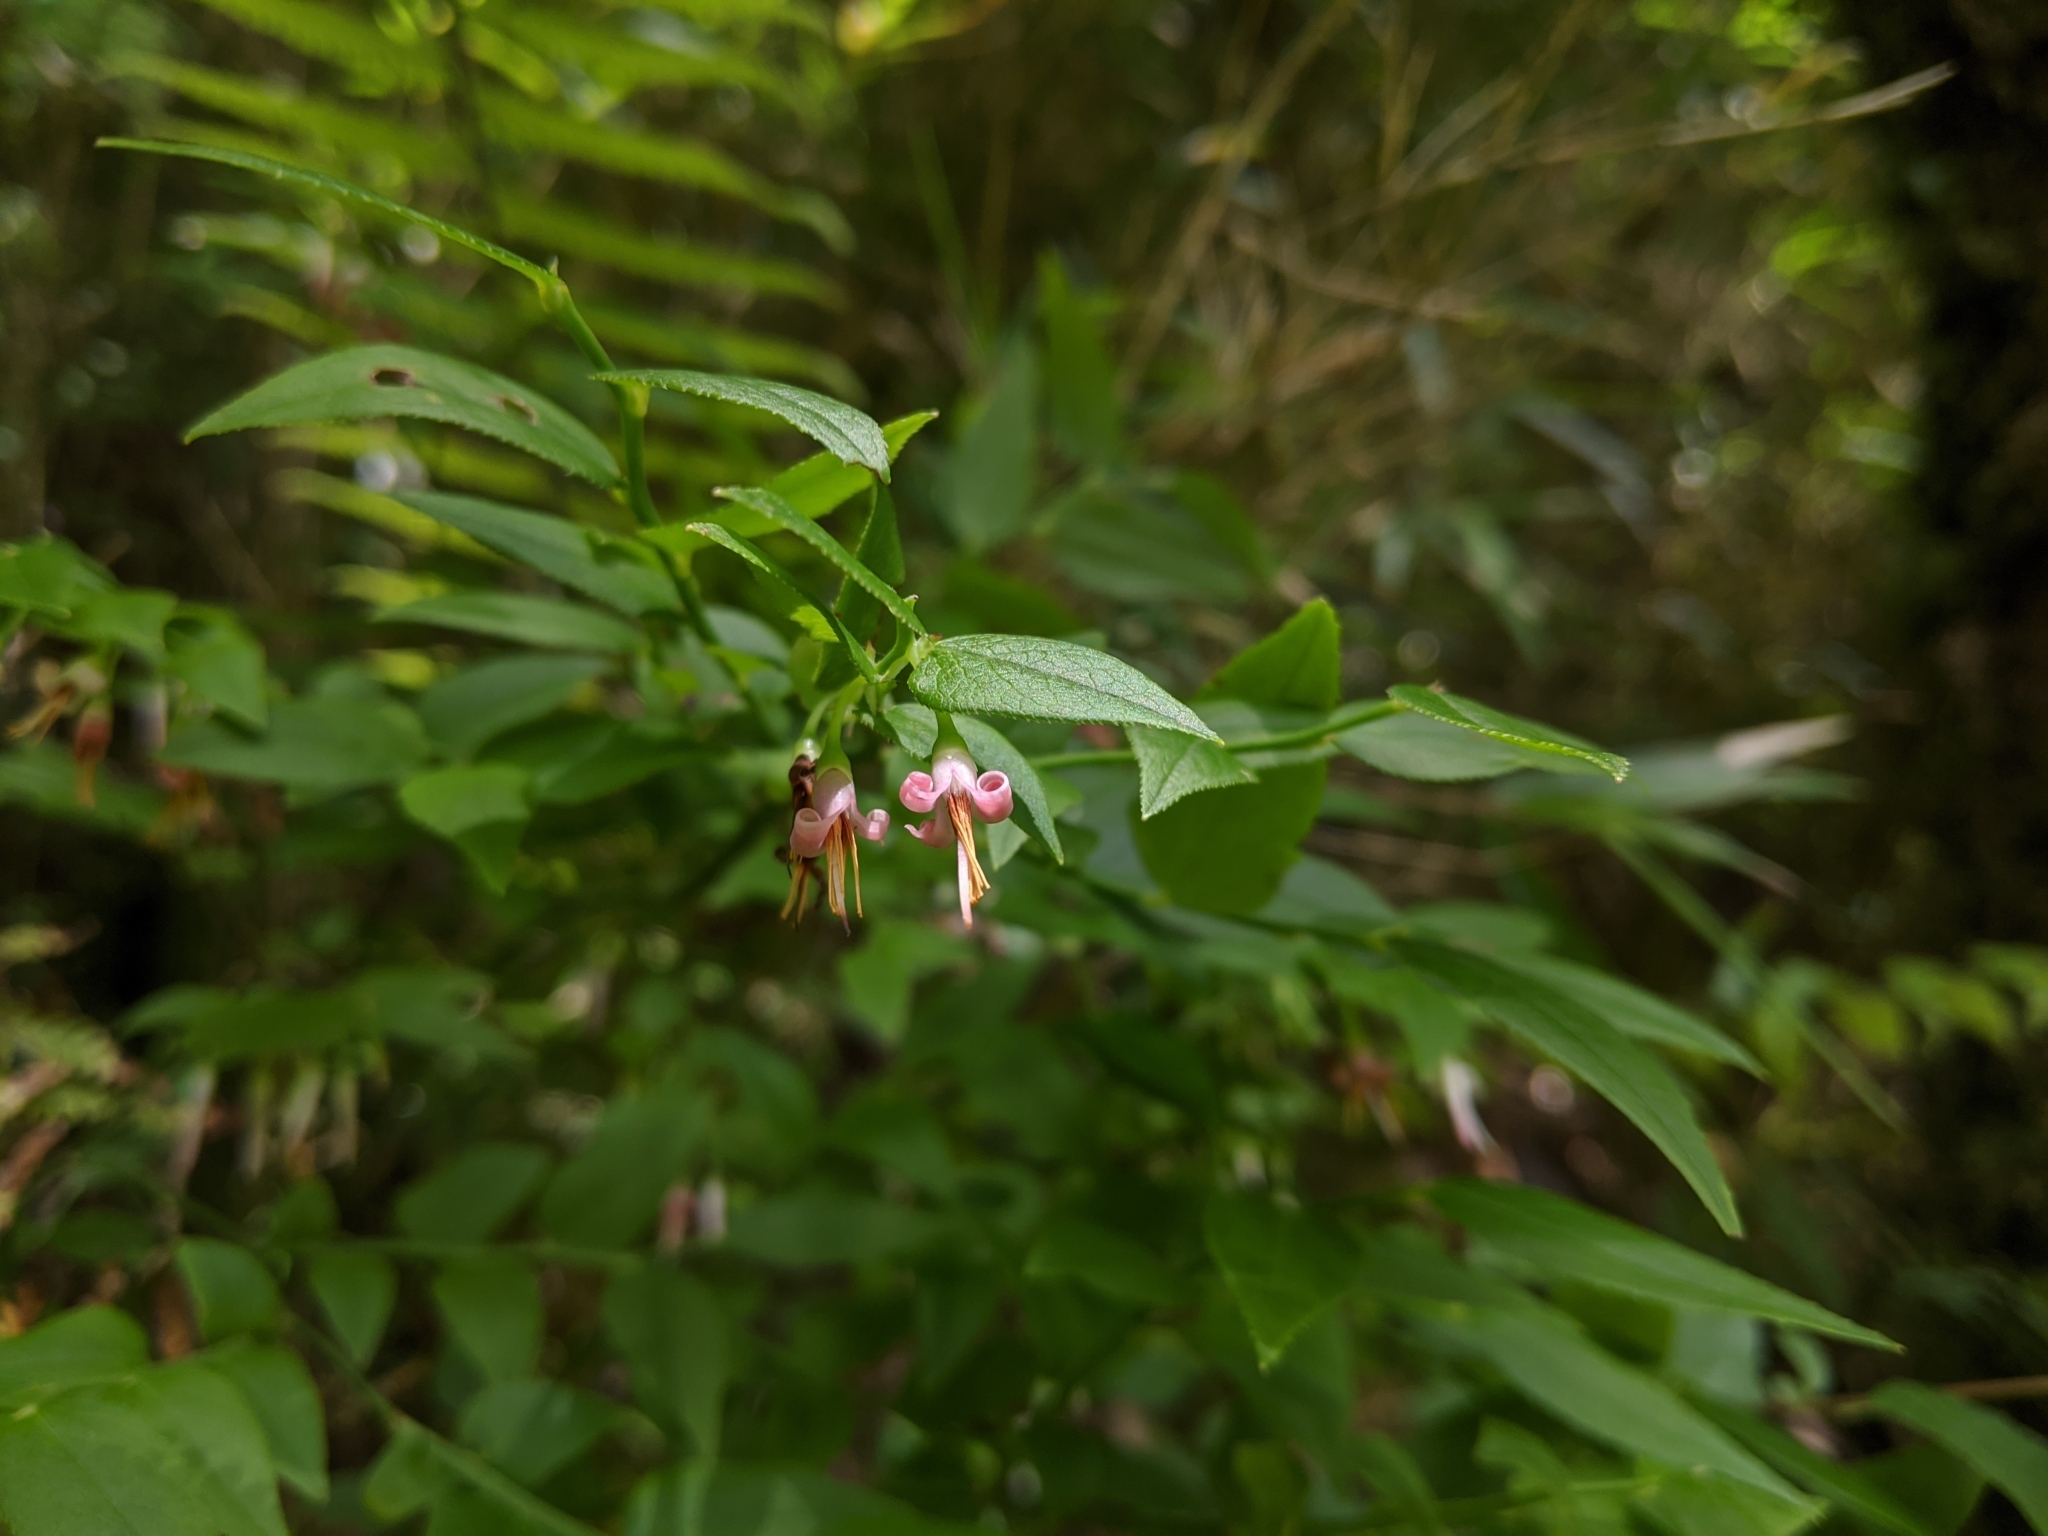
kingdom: Plantae
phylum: Tracheophyta
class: Magnoliopsida
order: Ericales
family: Ericaceae
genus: Vaccinium
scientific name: Vaccinium japonicum
